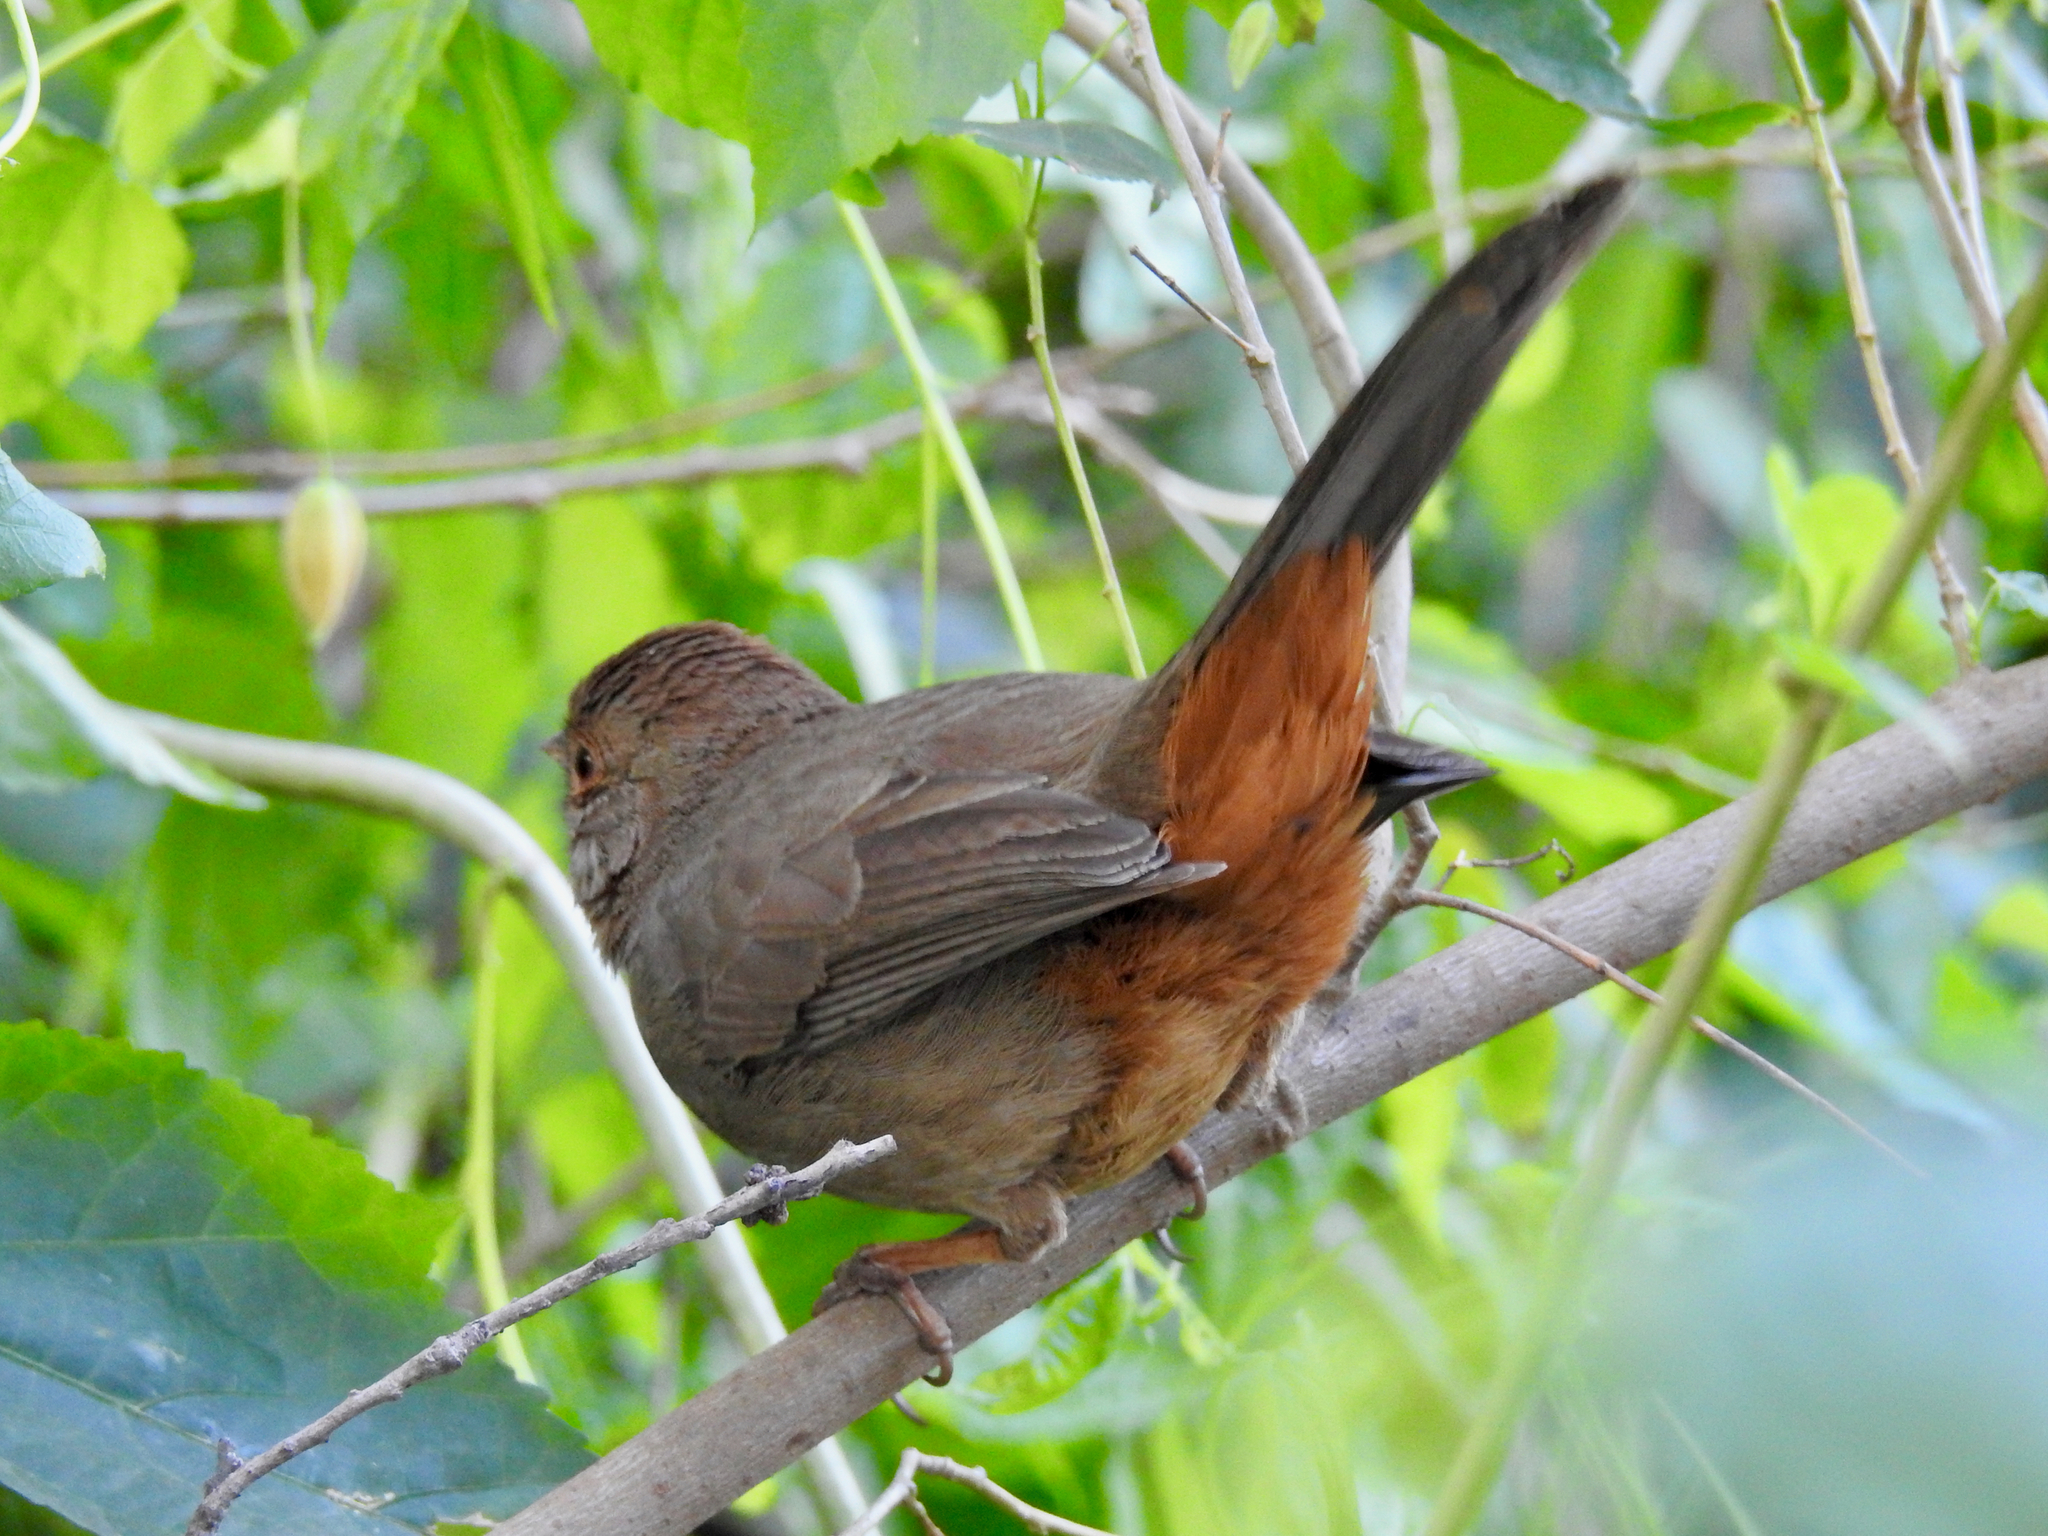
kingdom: Animalia
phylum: Chordata
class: Aves
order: Passeriformes
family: Passerellidae
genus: Melozone
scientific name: Melozone crissalis
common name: California towhee
